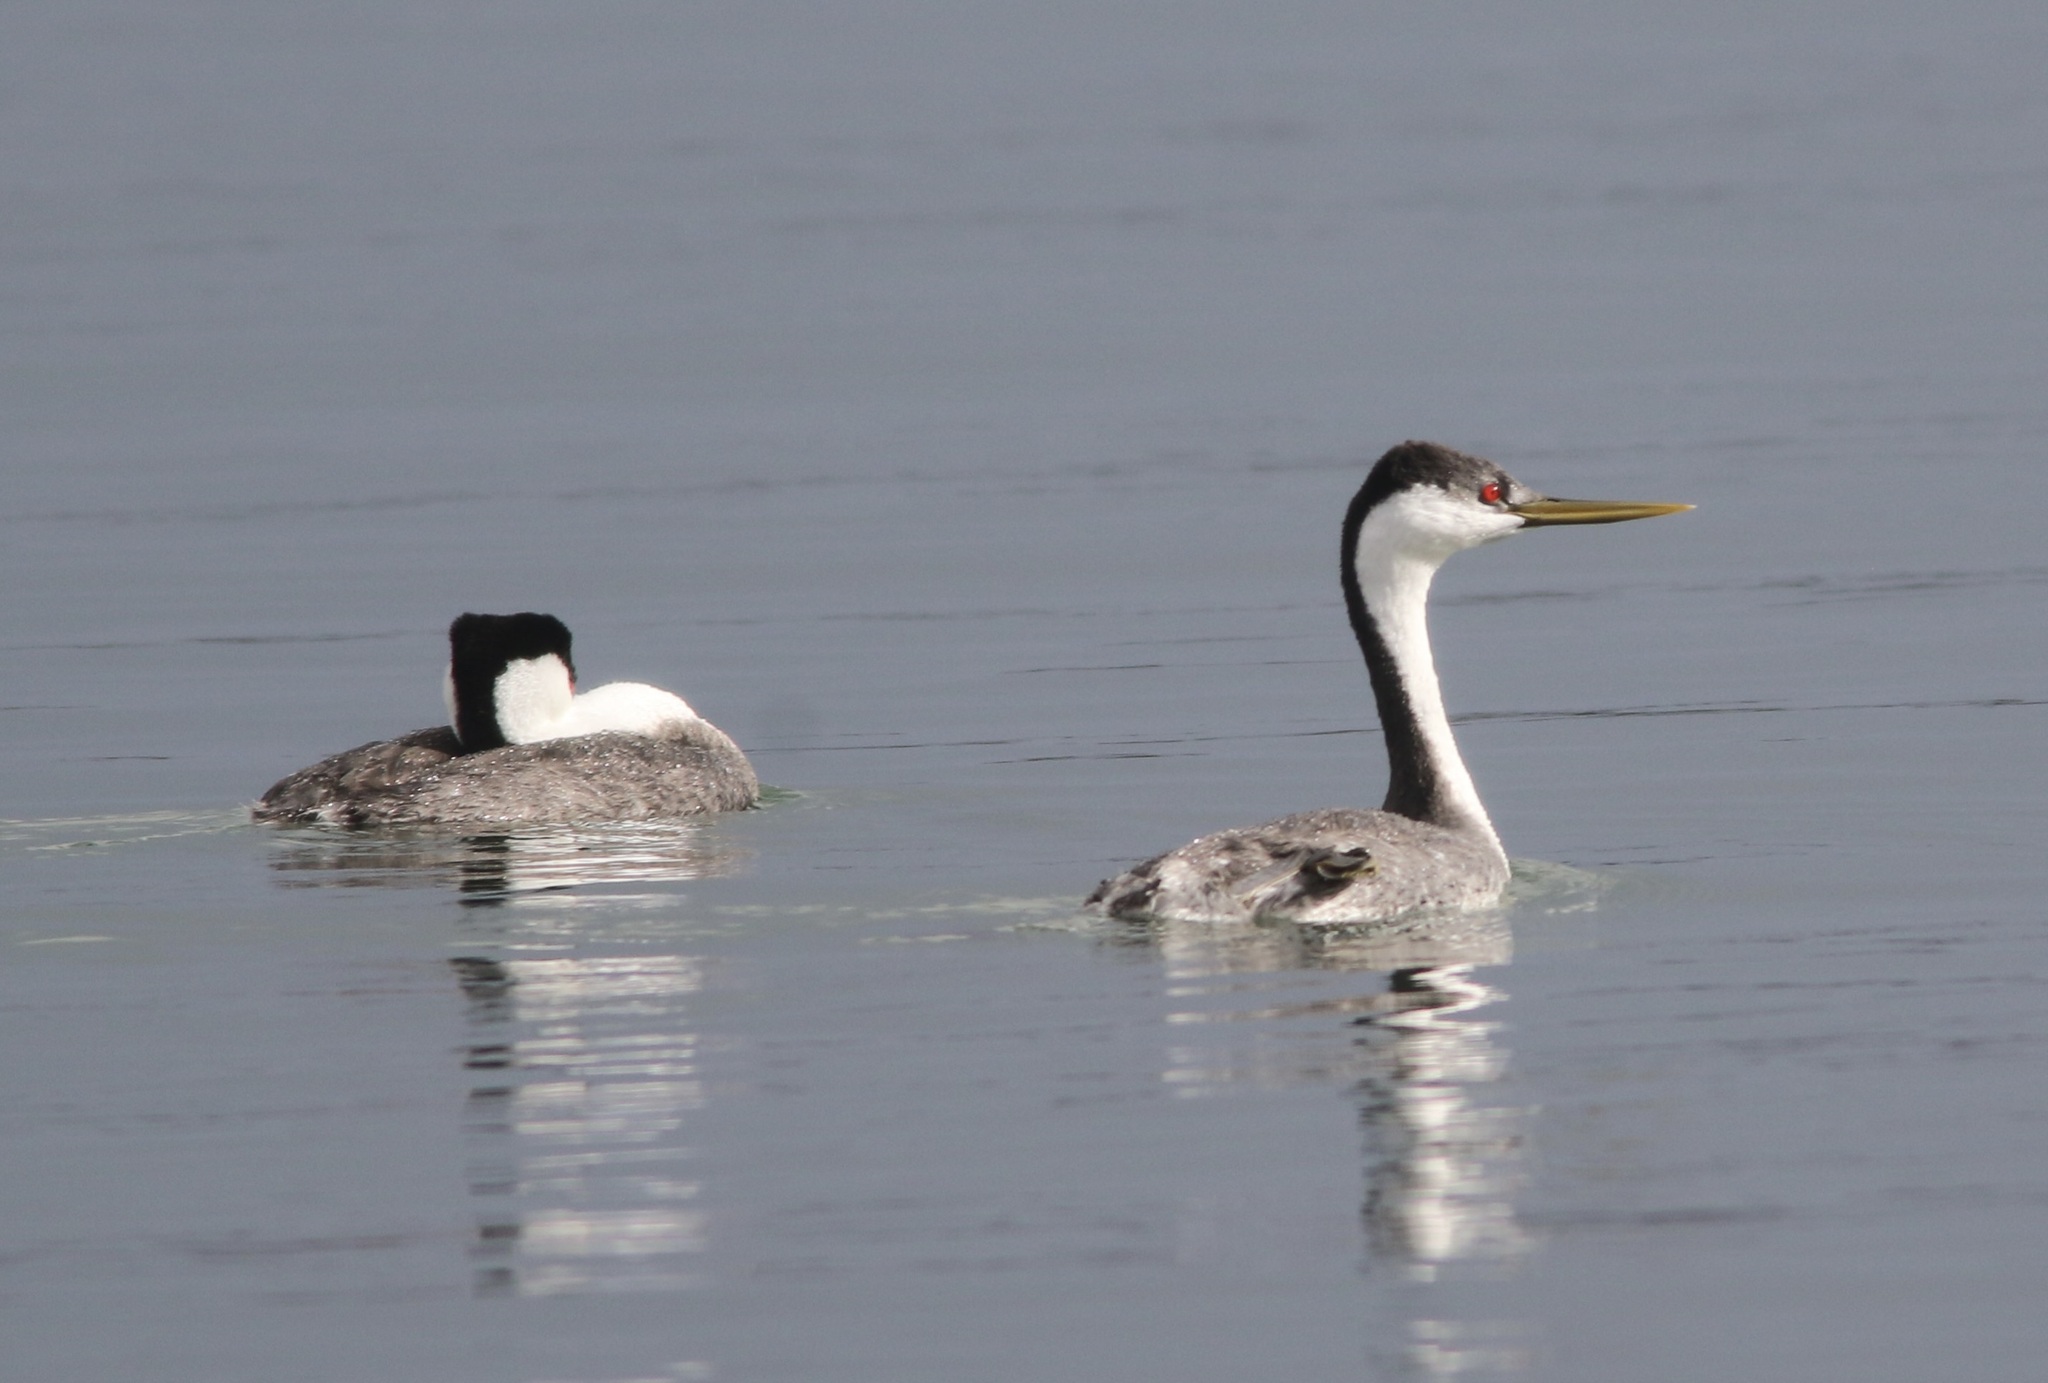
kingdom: Animalia
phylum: Chordata
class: Aves
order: Podicipediformes
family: Podicipedidae
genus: Aechmophorus
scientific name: Aechmophorus occidentalis
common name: Western grebe
